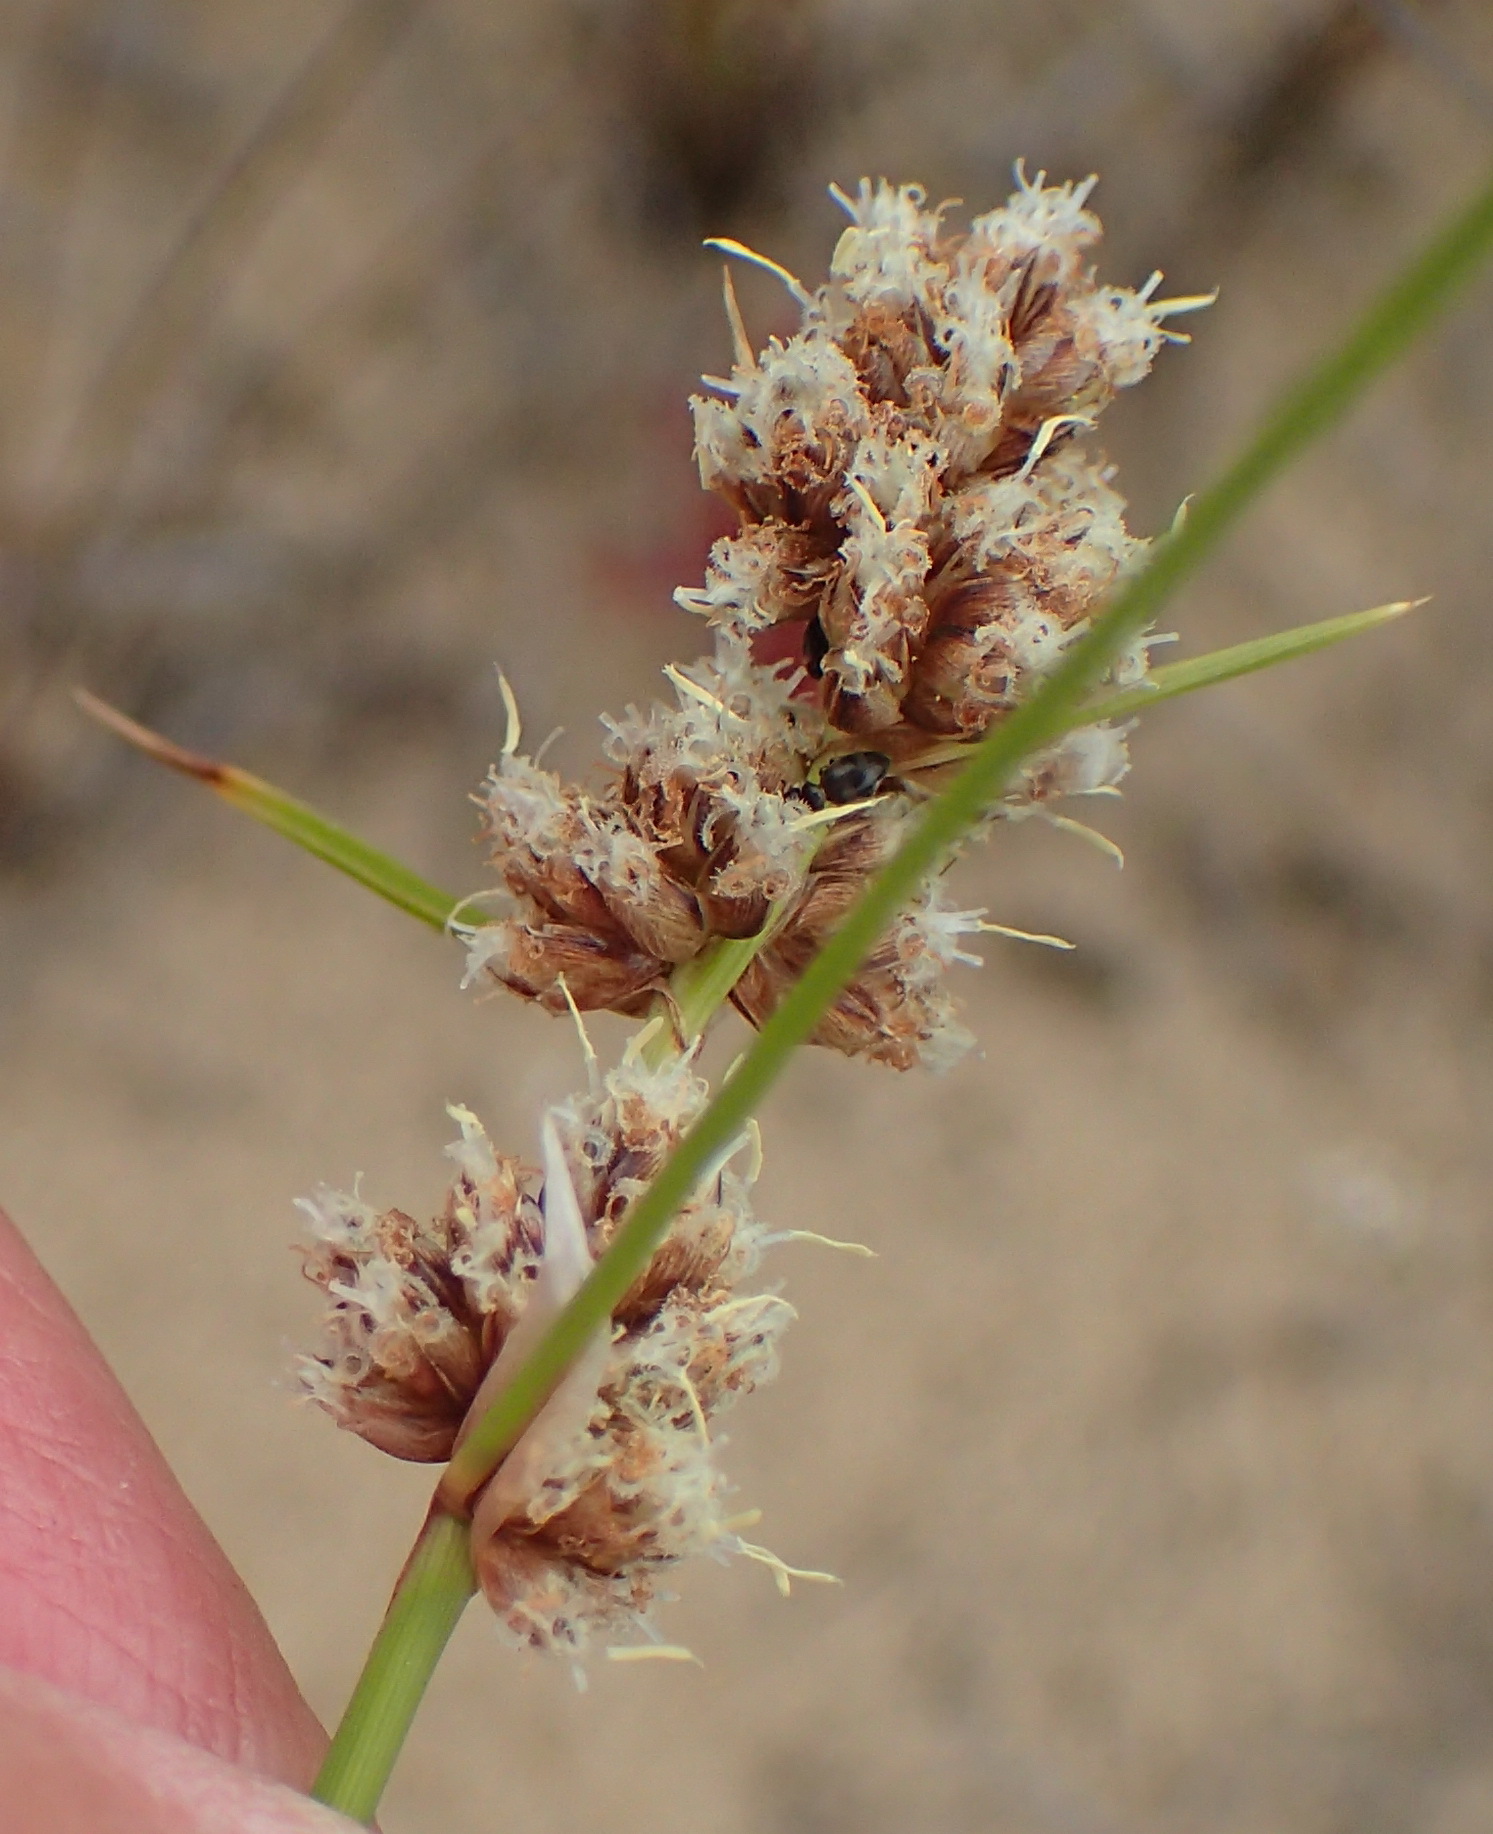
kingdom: Plantae
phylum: Tracheophyta
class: Liliopsida
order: Poales
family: Cyperaceae
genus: Ficinia
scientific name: Ficinia bulbosa
